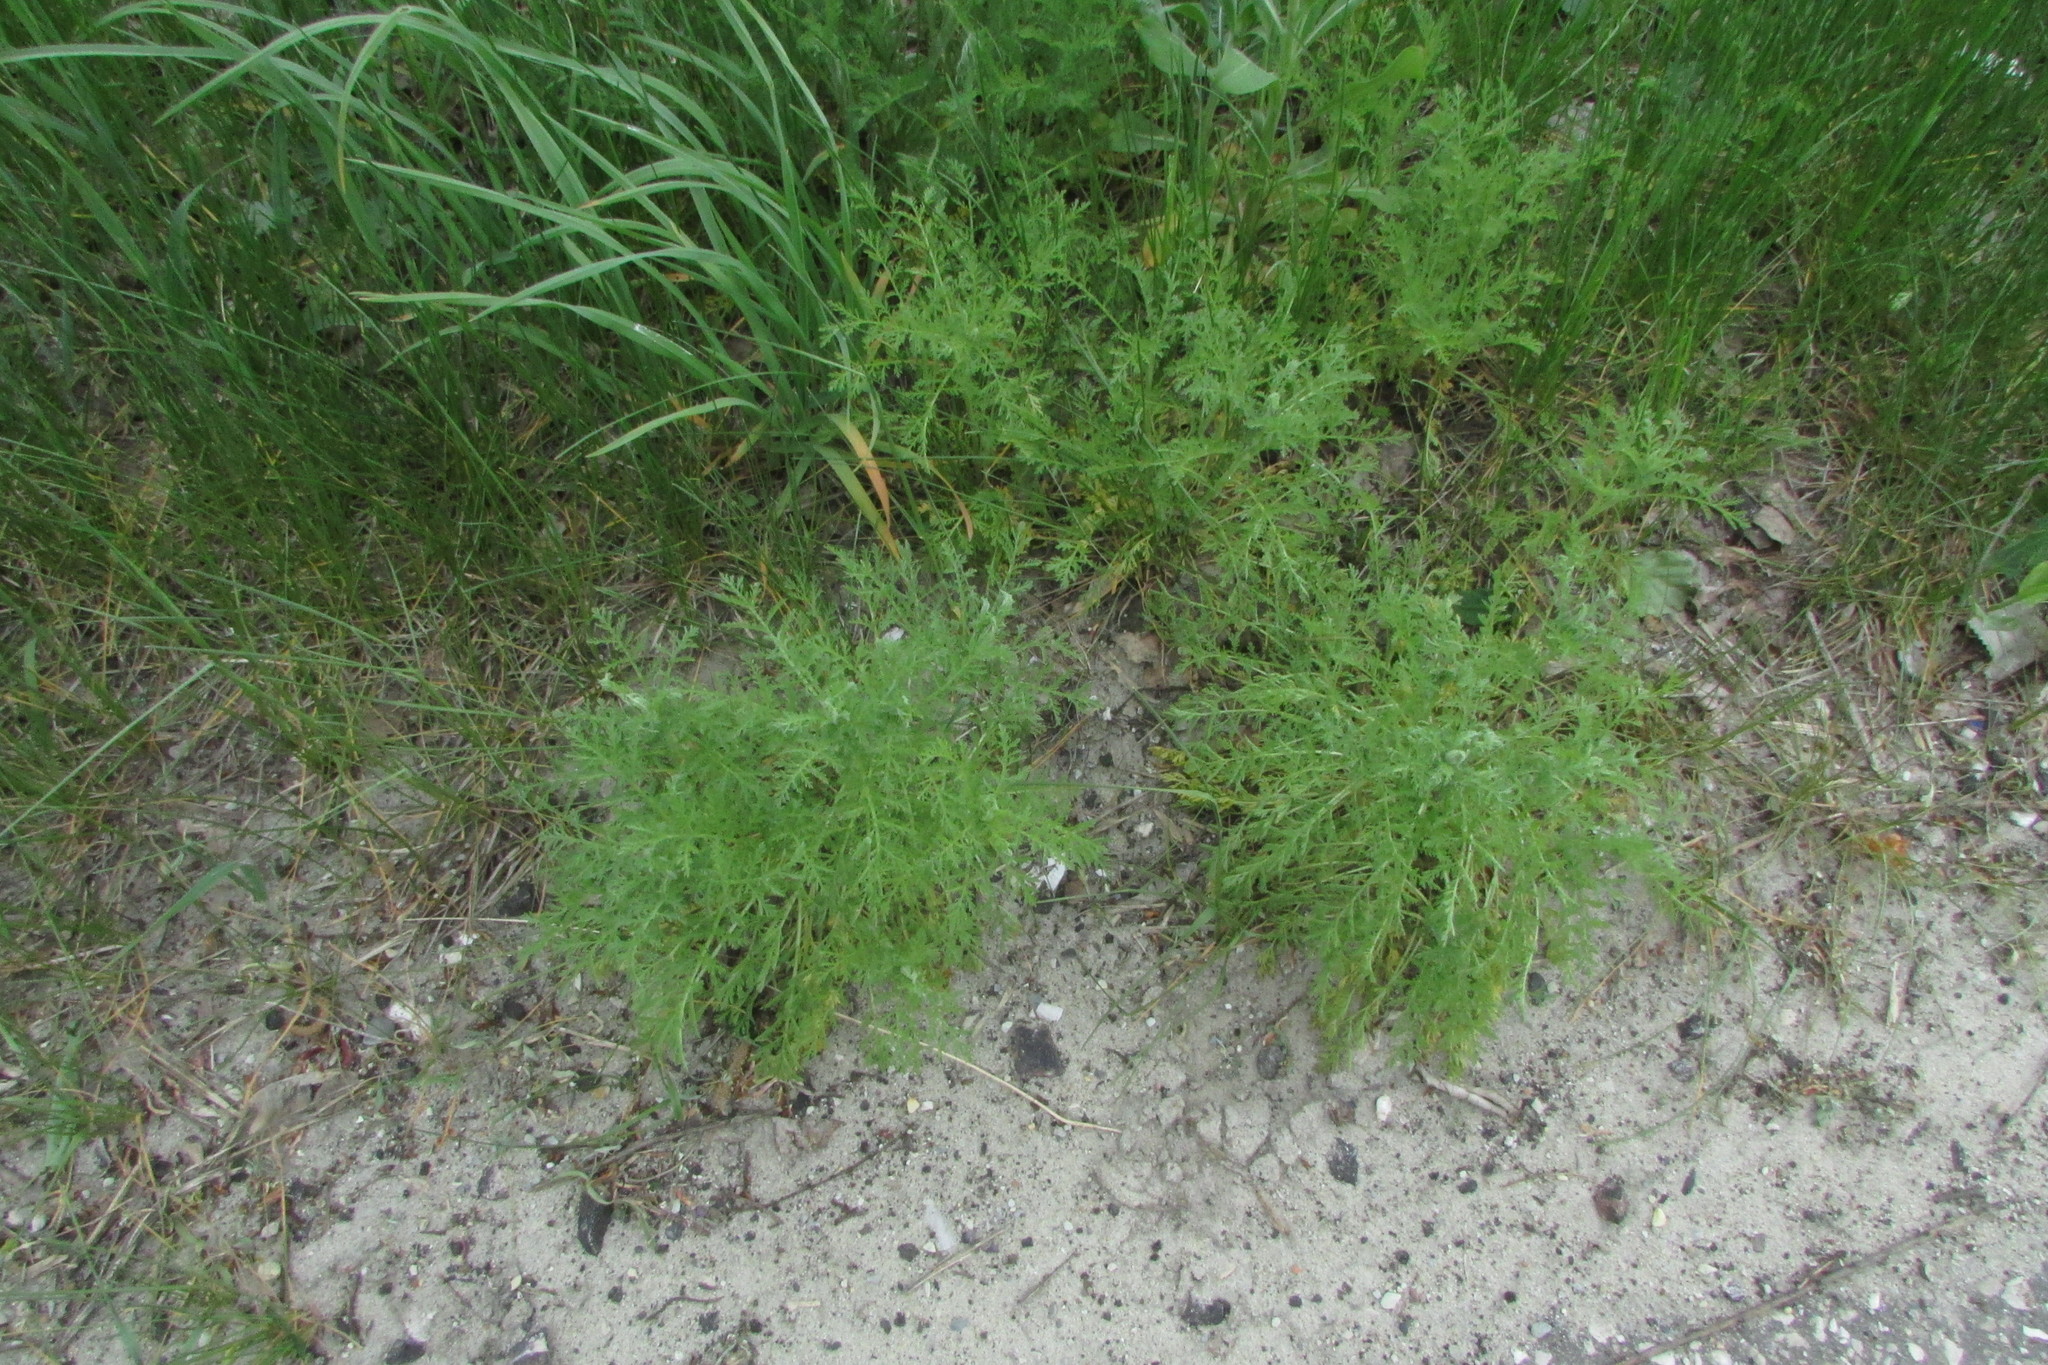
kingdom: Plantae
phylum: Tracheophyta
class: Magnoliopsida
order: Asterales
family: Asteraceae
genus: Achillea
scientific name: Achillea nobilis
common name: Noble yarrow
